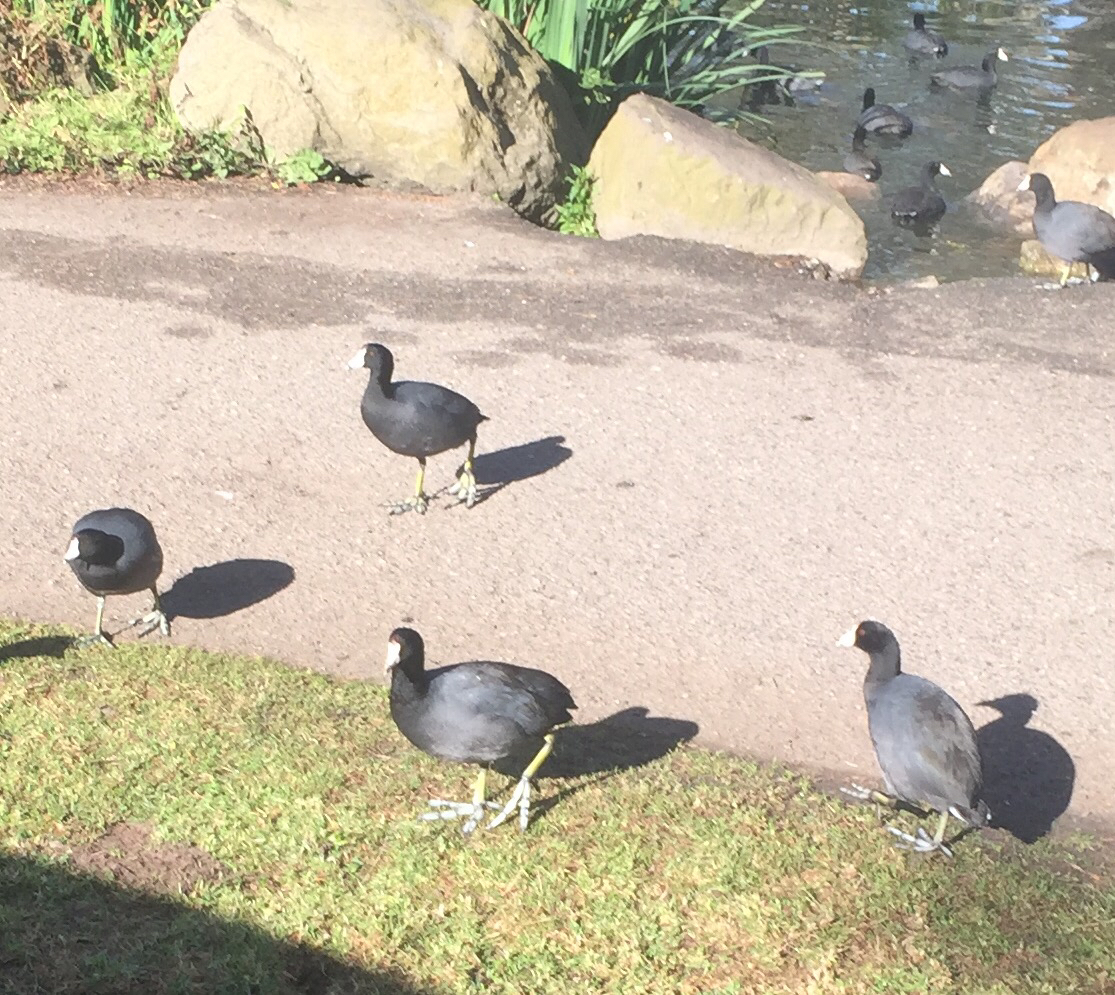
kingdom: Animalia
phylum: Chordata
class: Aves
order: Gruiformes
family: Rallidae
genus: Fulica
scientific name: Fulica americana
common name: American coot
